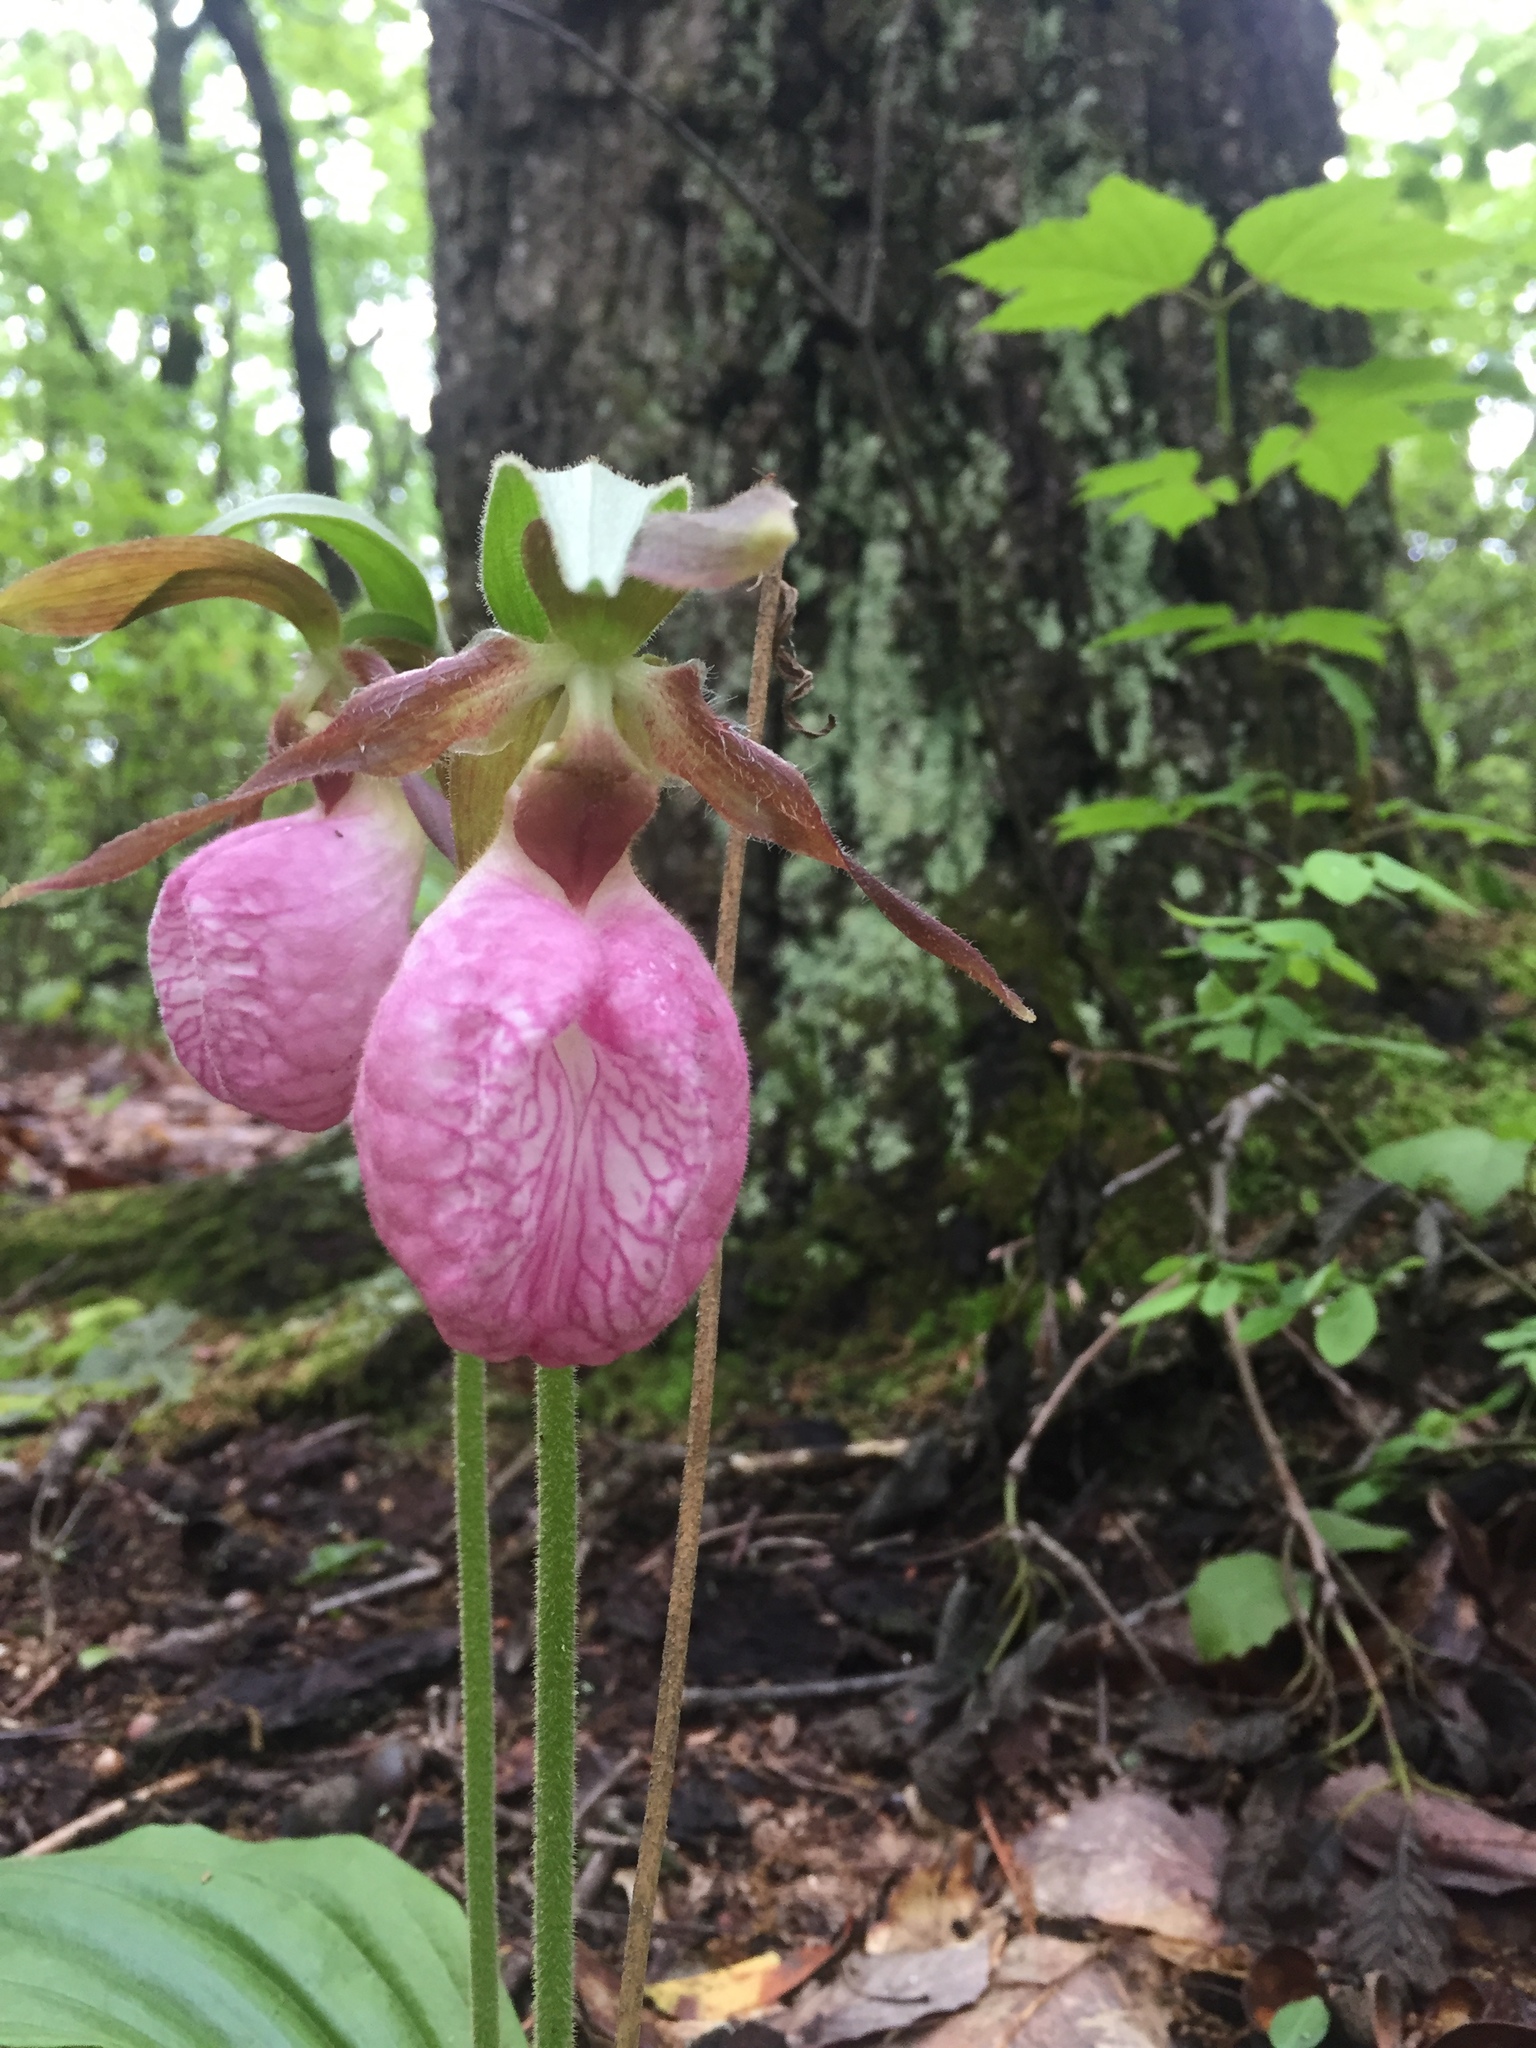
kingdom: Plantae
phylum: Tracheophyta
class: Liliopsida
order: Asparagales
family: Orchidaceae
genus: Cypripedium
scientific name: Cypripedium acaule
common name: Pink lady's-slipper
